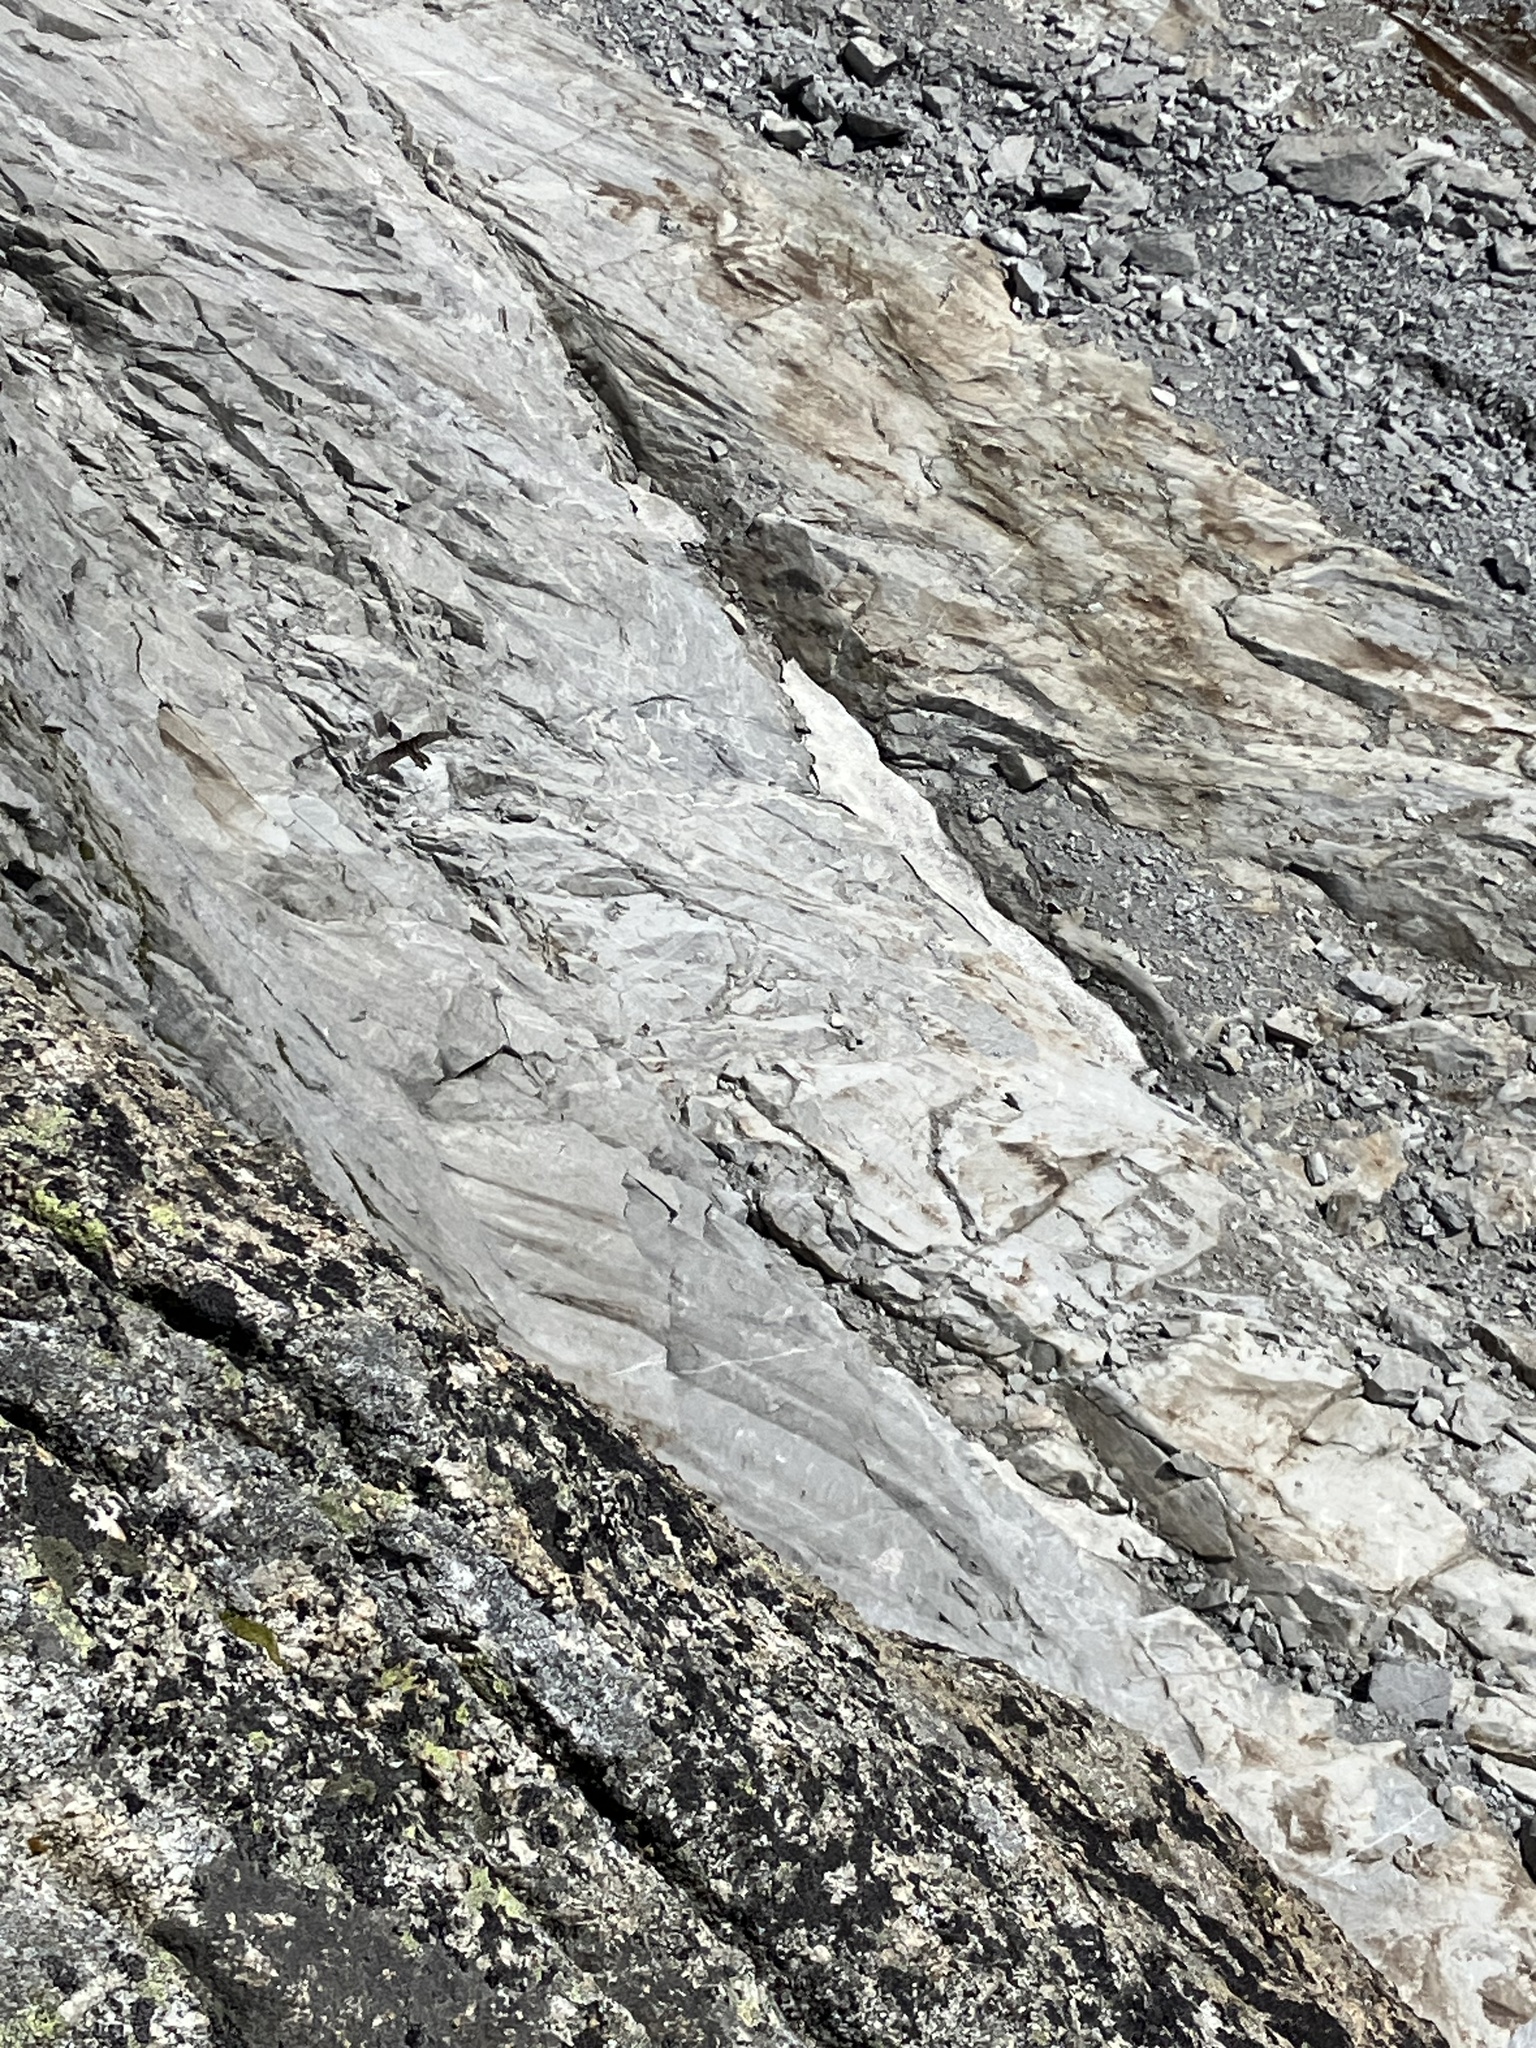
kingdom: Animalia
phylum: Chordata
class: Aves
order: Accipitriformes
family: Accipitridae
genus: Gypaetus
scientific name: Gypaetus barbatus
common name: Bearded vulture
